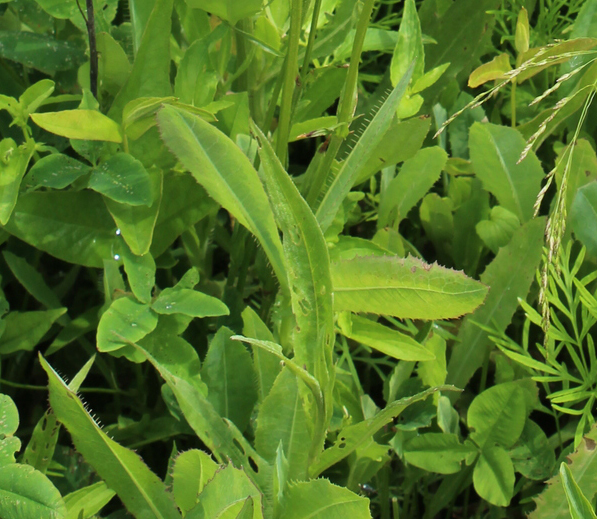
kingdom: Plantae
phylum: Tracheophyta
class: Magnoliopsida
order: Asterales
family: Asteraceae
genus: Lactuca
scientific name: Lactuca serriola
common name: Prickly lettuce
